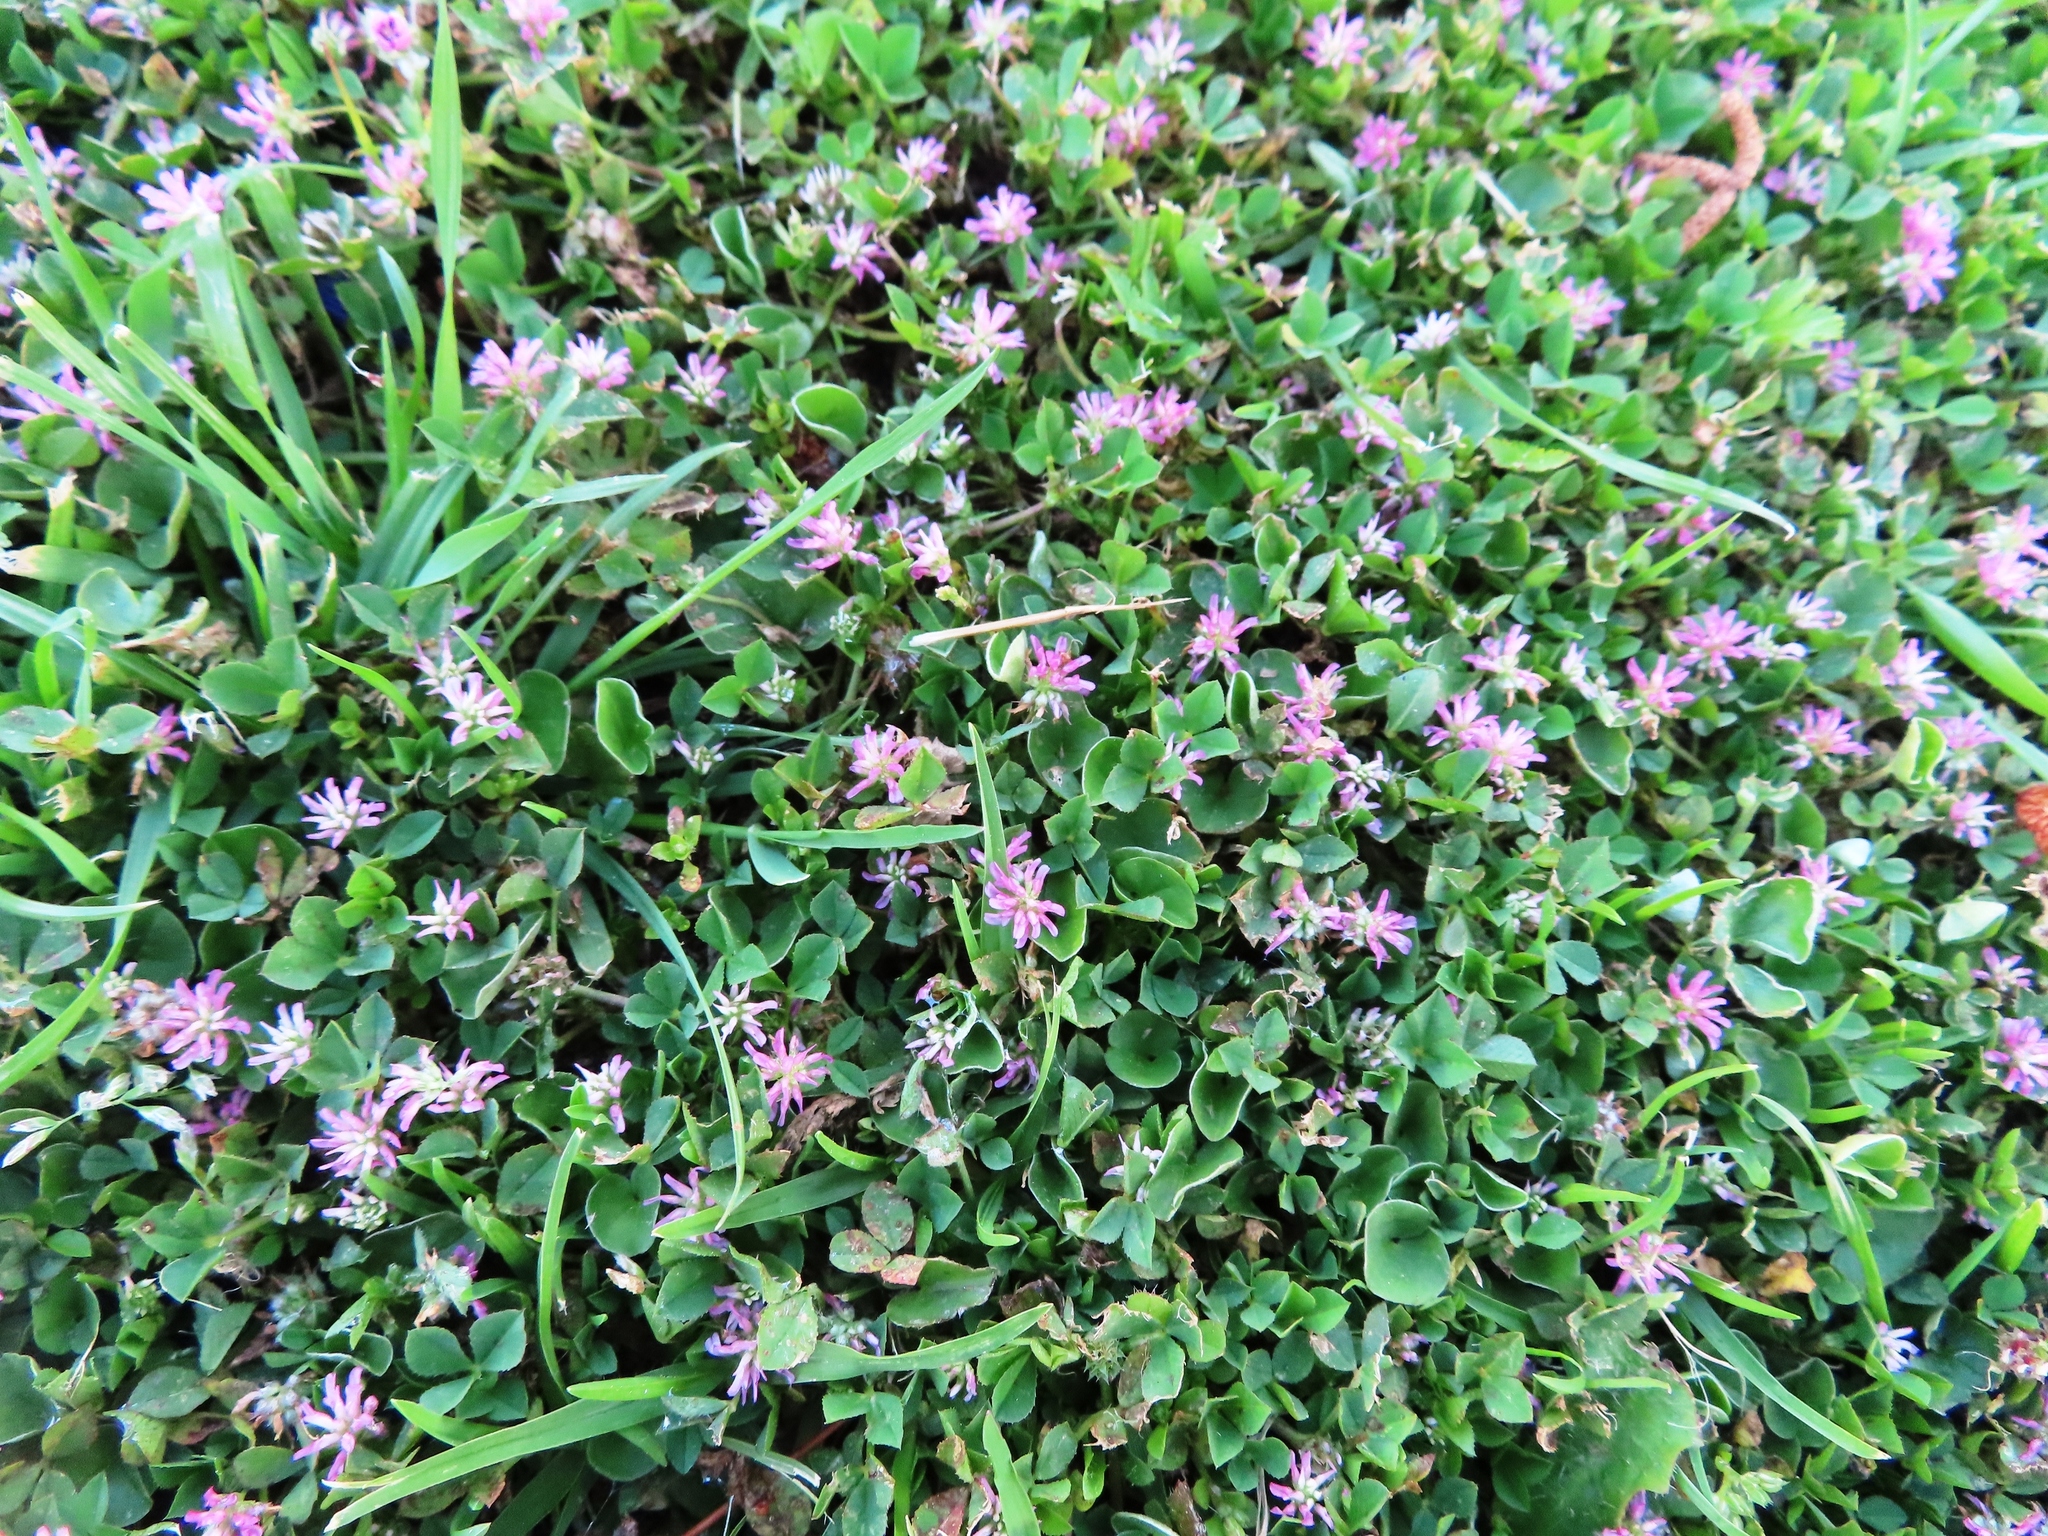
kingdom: Plantae
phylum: Tracheophyta
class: Magnoliopsida
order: Fabales
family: Fabaceae
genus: Trifolium
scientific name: Trifolium resupinatum
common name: Reversed clover
